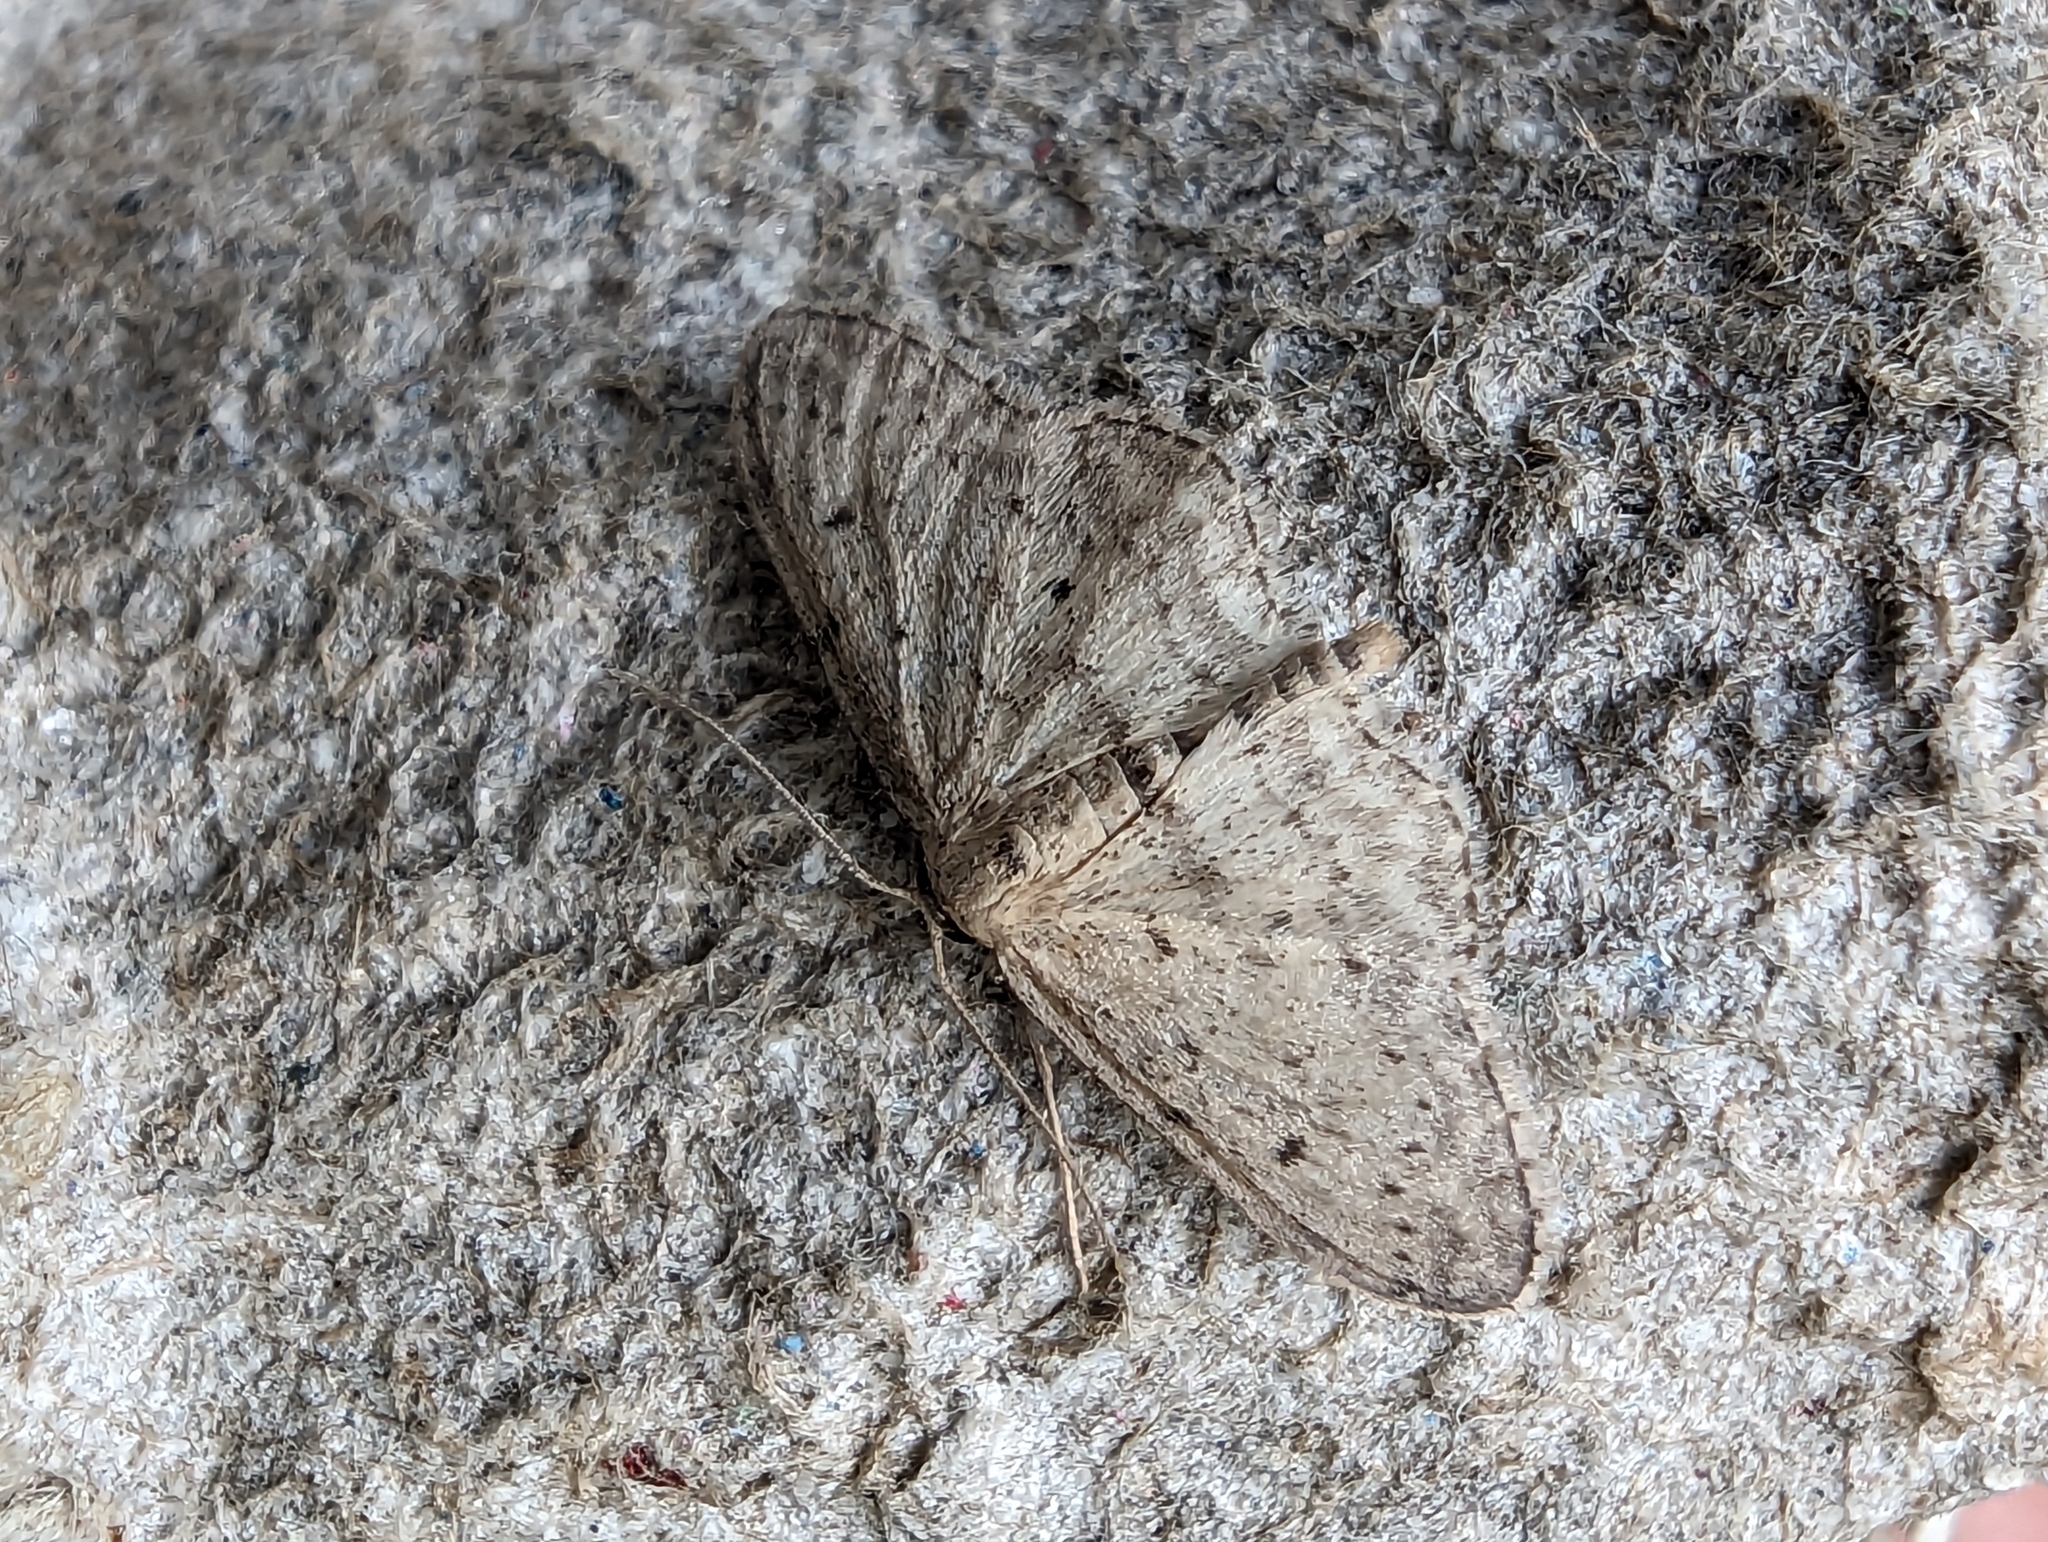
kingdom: Animalia
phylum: Arthropoda
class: Insecta
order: Lepidoptera
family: Geometridae
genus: Idaea
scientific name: Idaea seriata
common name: Small dusty wave
